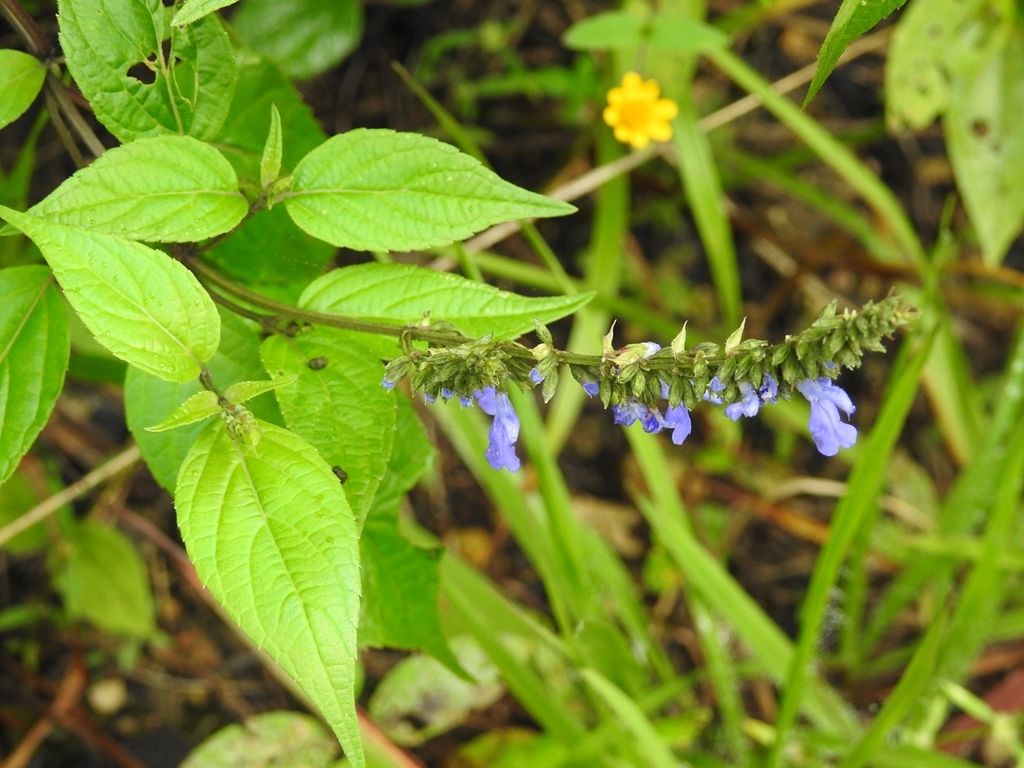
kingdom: Plantae
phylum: Tracheophyta
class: Magnoliopsida
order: Lamiales
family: Lamiaceae
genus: Salvia
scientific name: Salvia connivens
